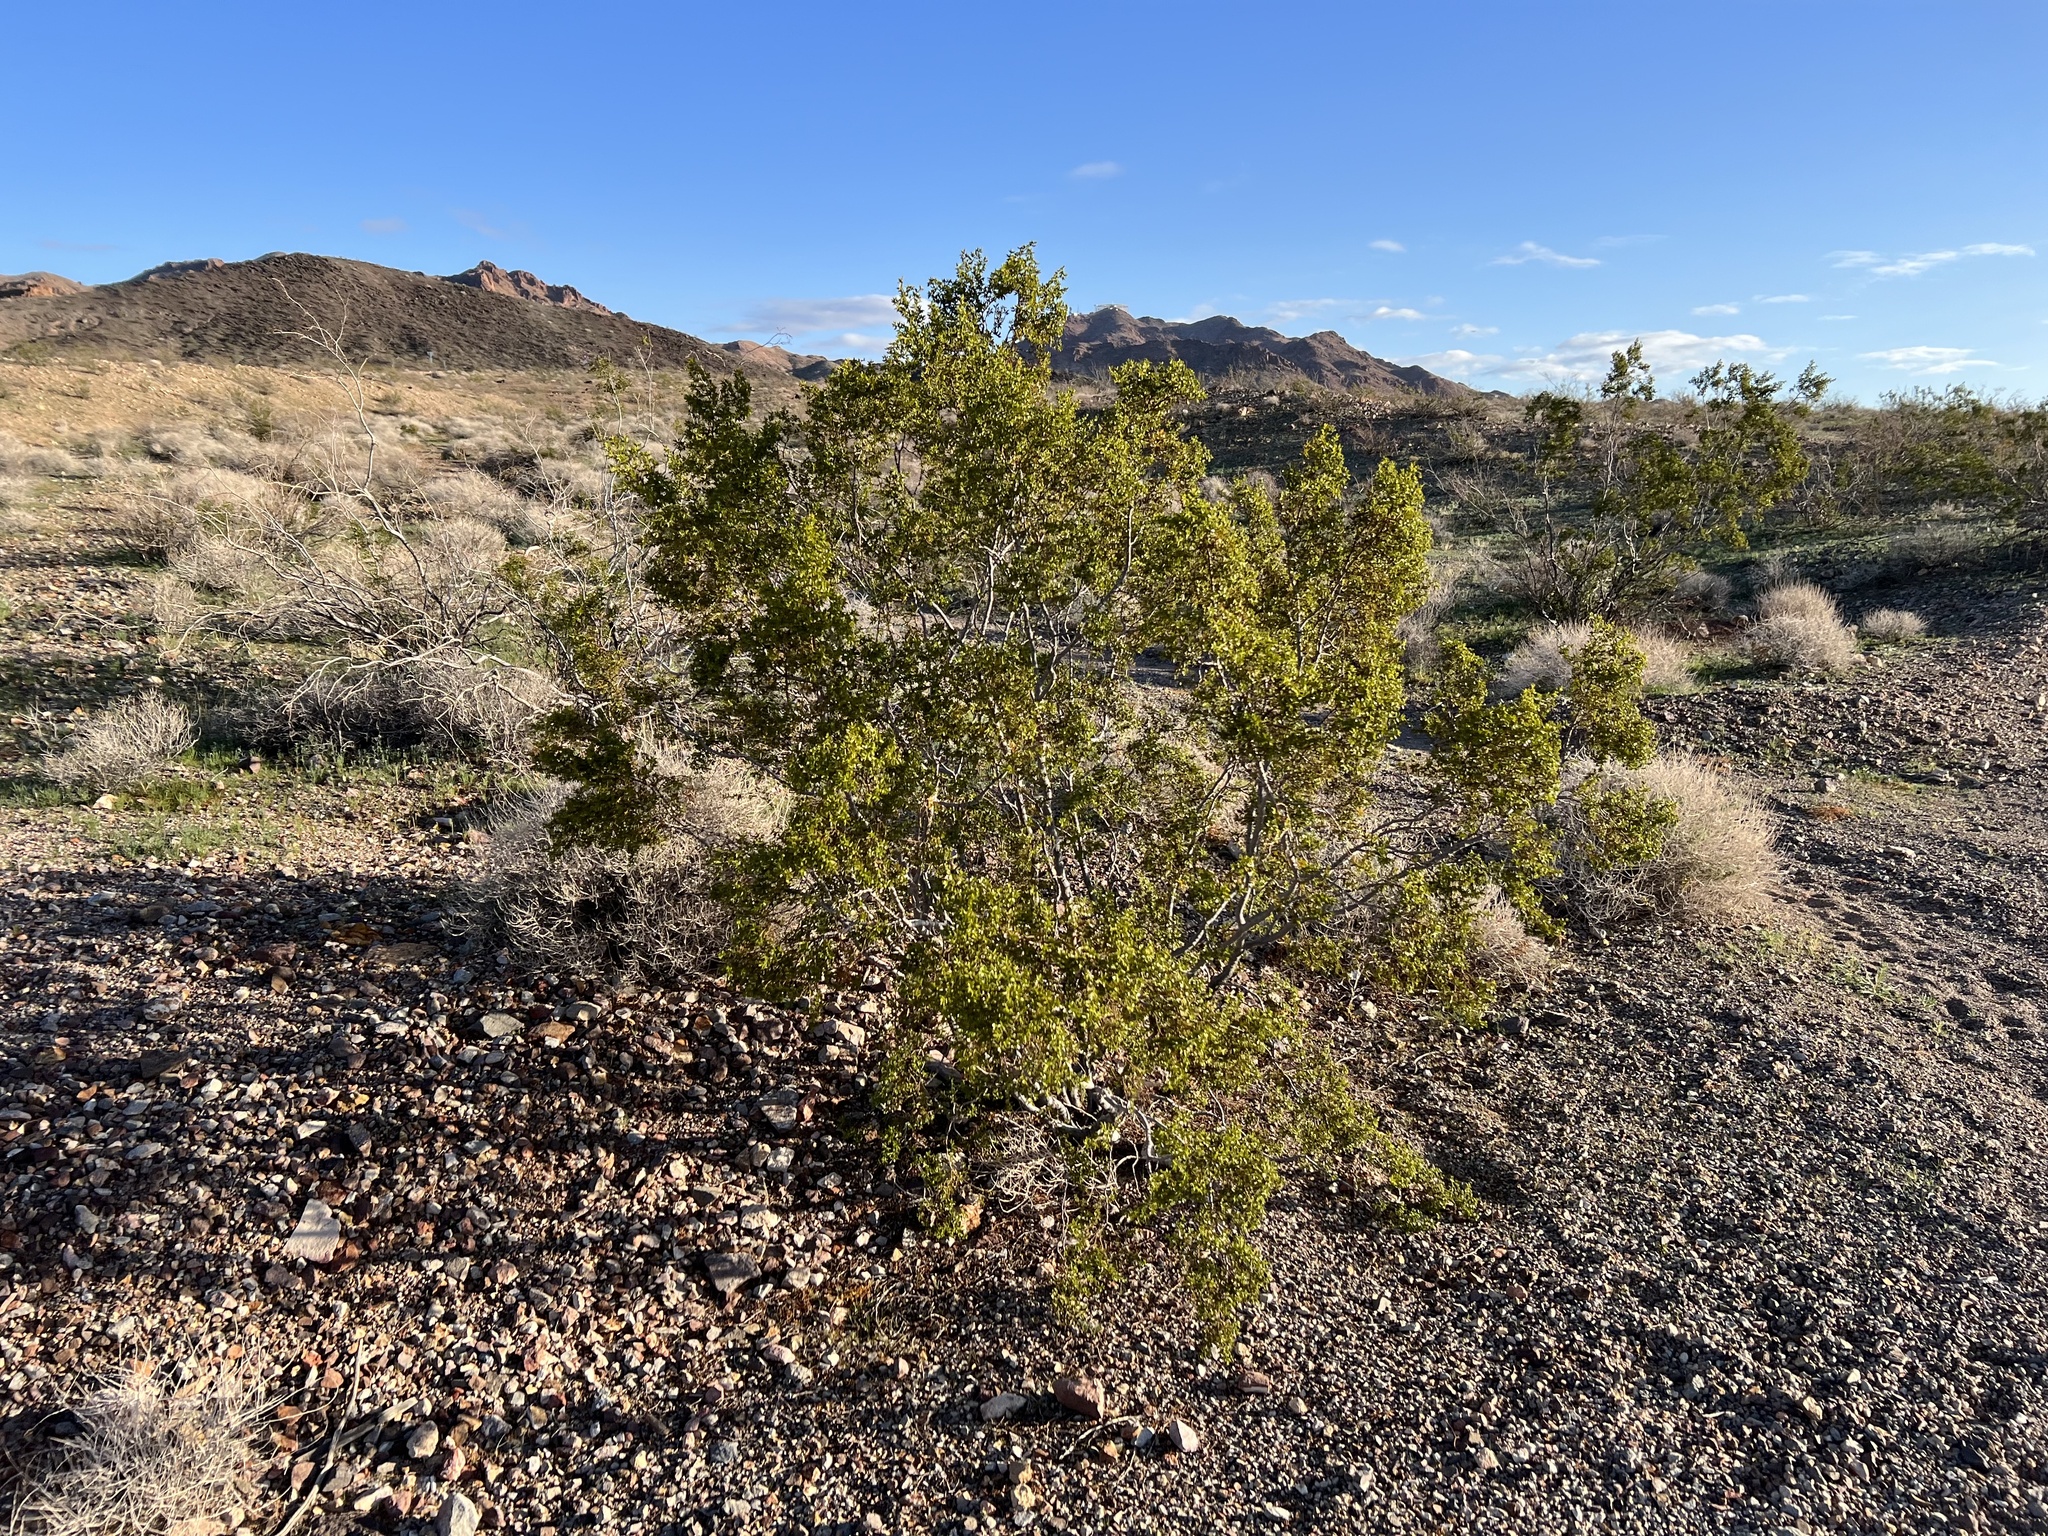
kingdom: Plantae
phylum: Tracheophyta
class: Magnoliopsida
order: Zygophyllales
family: Zygophyllaceae
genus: Larrea
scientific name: Larrea tridentata
